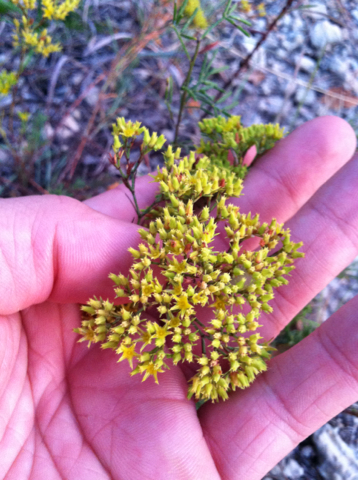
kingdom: Plantae
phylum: Tracheophyta
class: Magnoliopsida
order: Caryophyllales
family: Caryophyllaceae
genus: Paronychia
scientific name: Paronychia virginica
